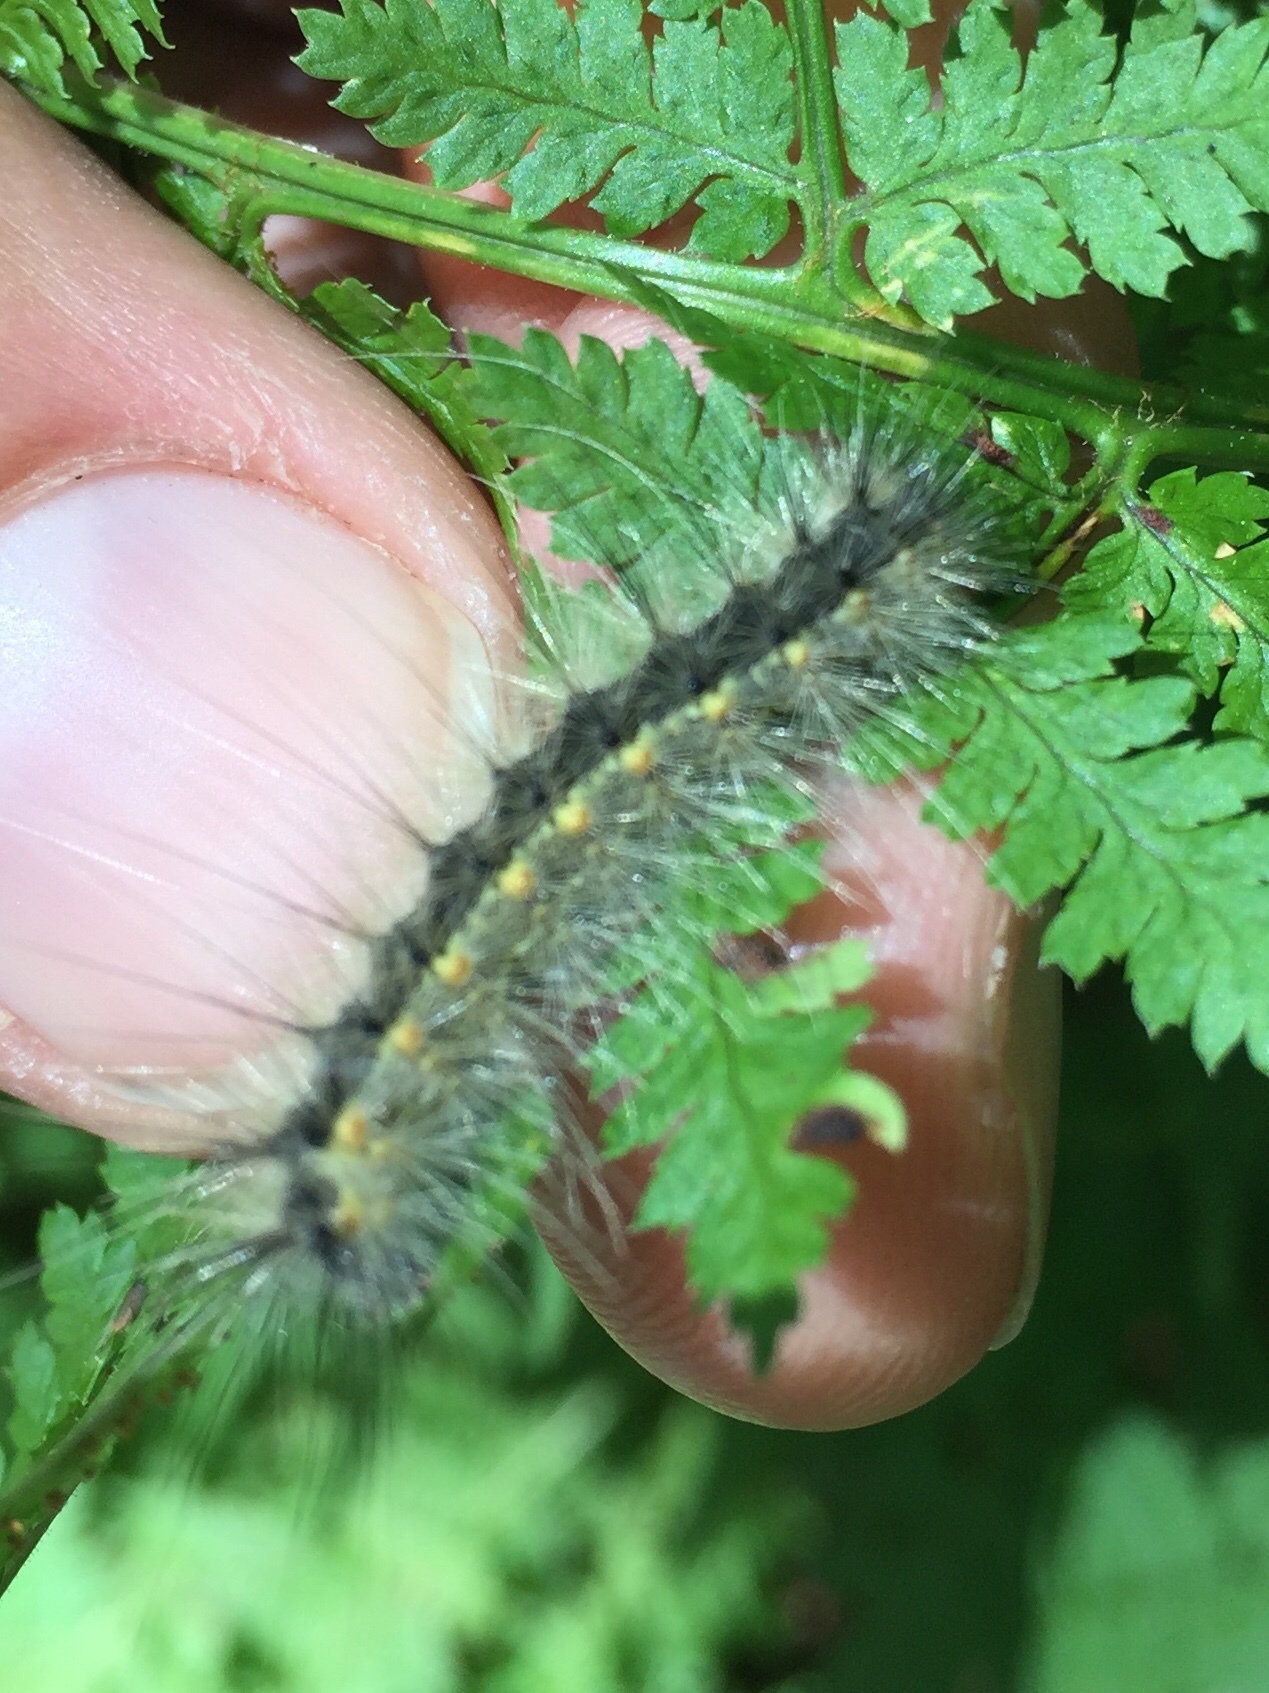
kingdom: Animalia
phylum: Arthropoda
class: Insecta
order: Lepidoptera
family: Erebidae
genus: Hyphantria
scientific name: Hyphantria cunea
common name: American white moth
